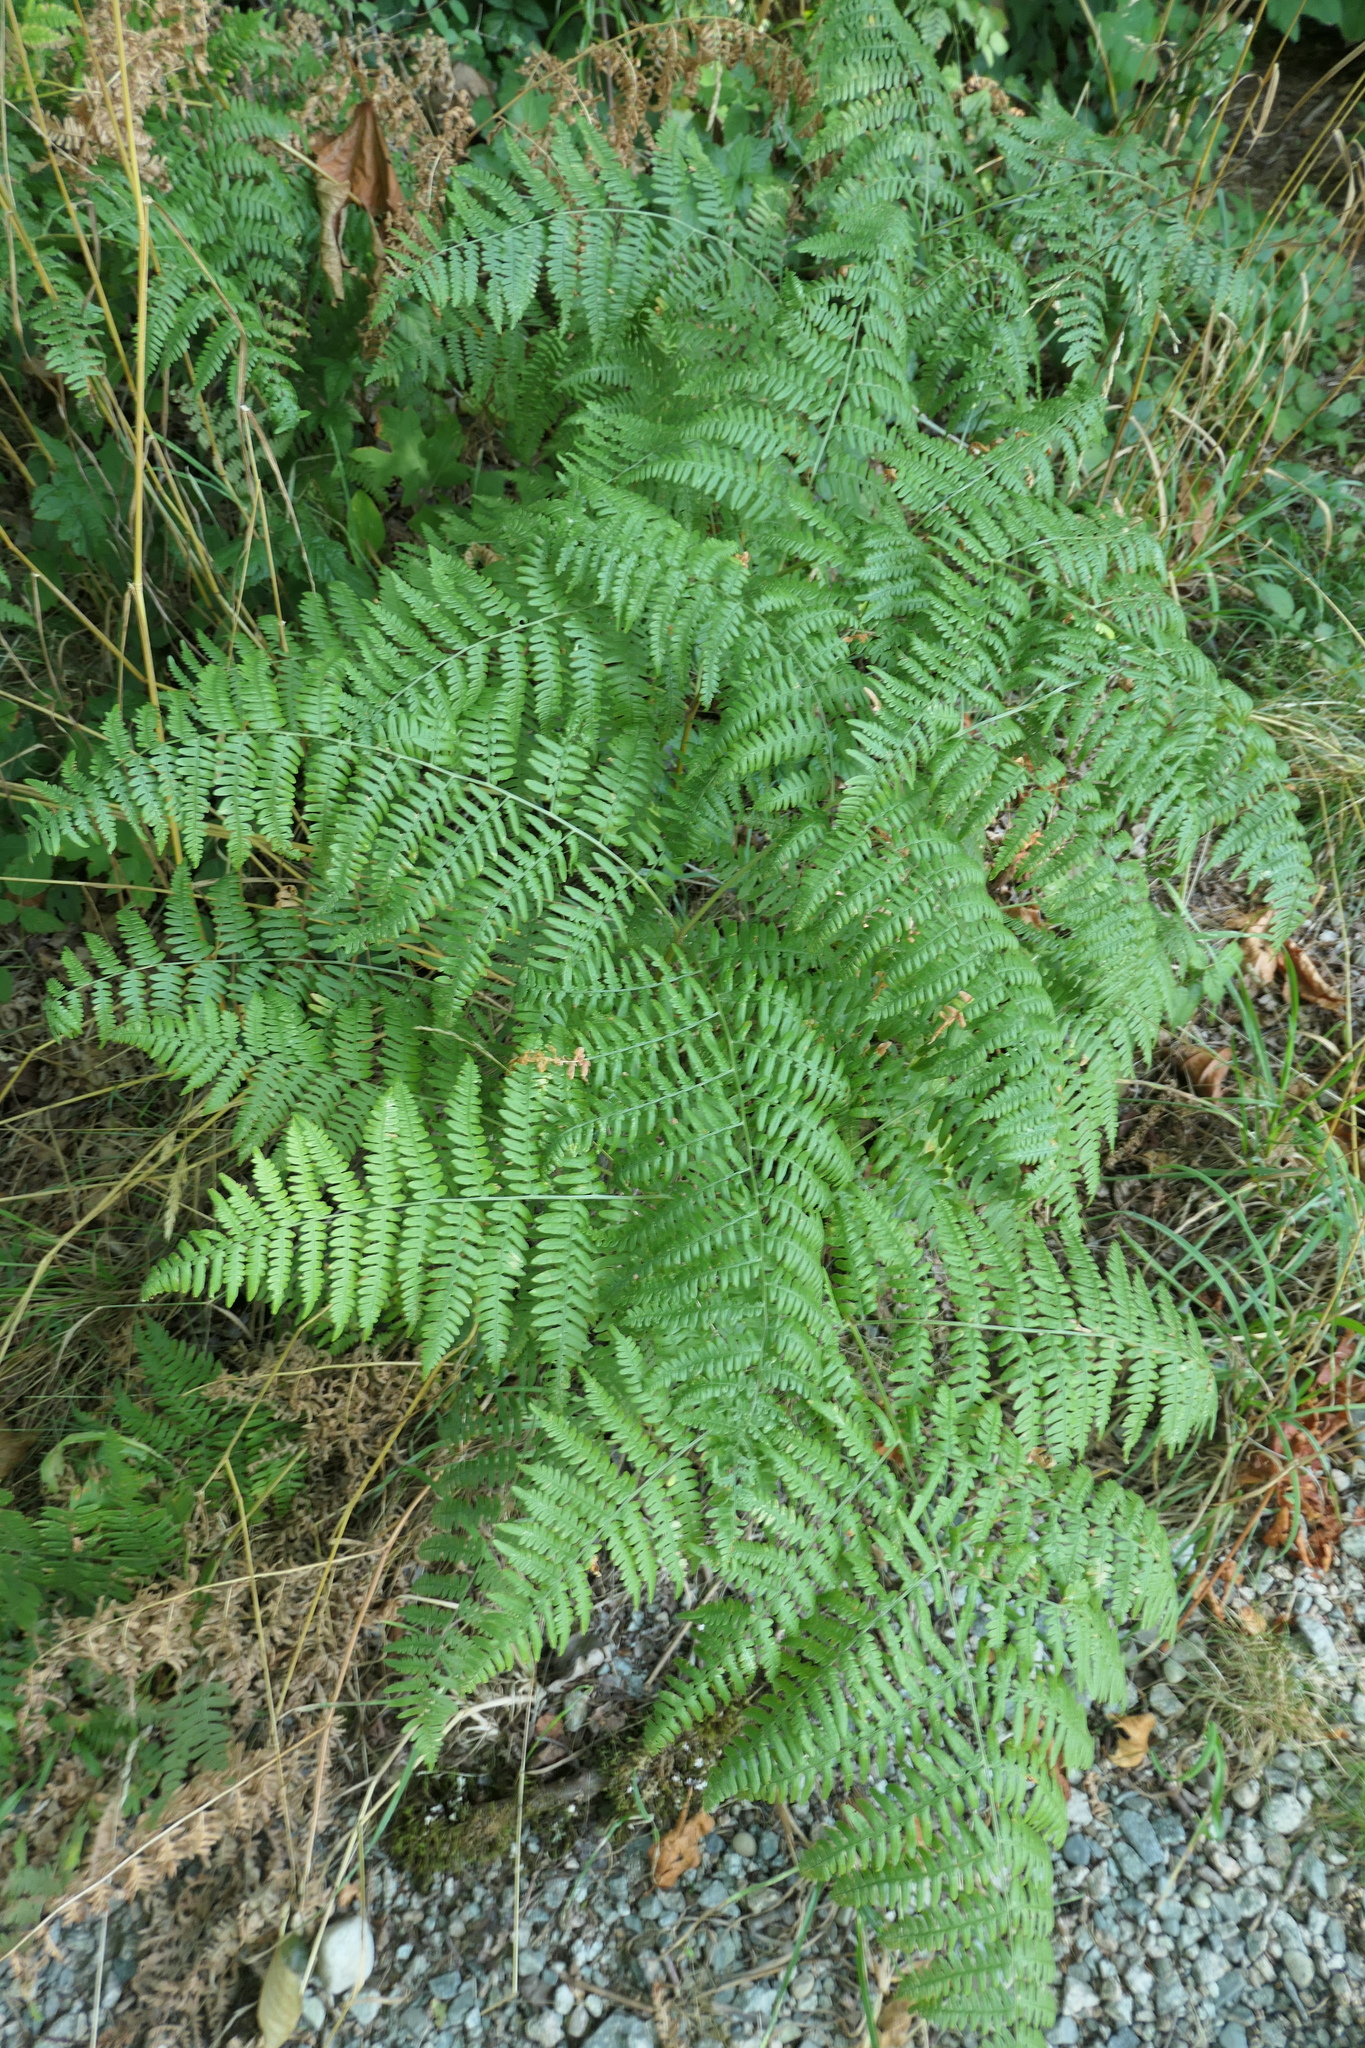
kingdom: Plantae
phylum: Tracheophyta
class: Polypodiopsida
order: Polypodiales
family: Dennstaedtiaceae
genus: Pteridium
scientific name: Pteridium aquilinum
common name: Bracken
